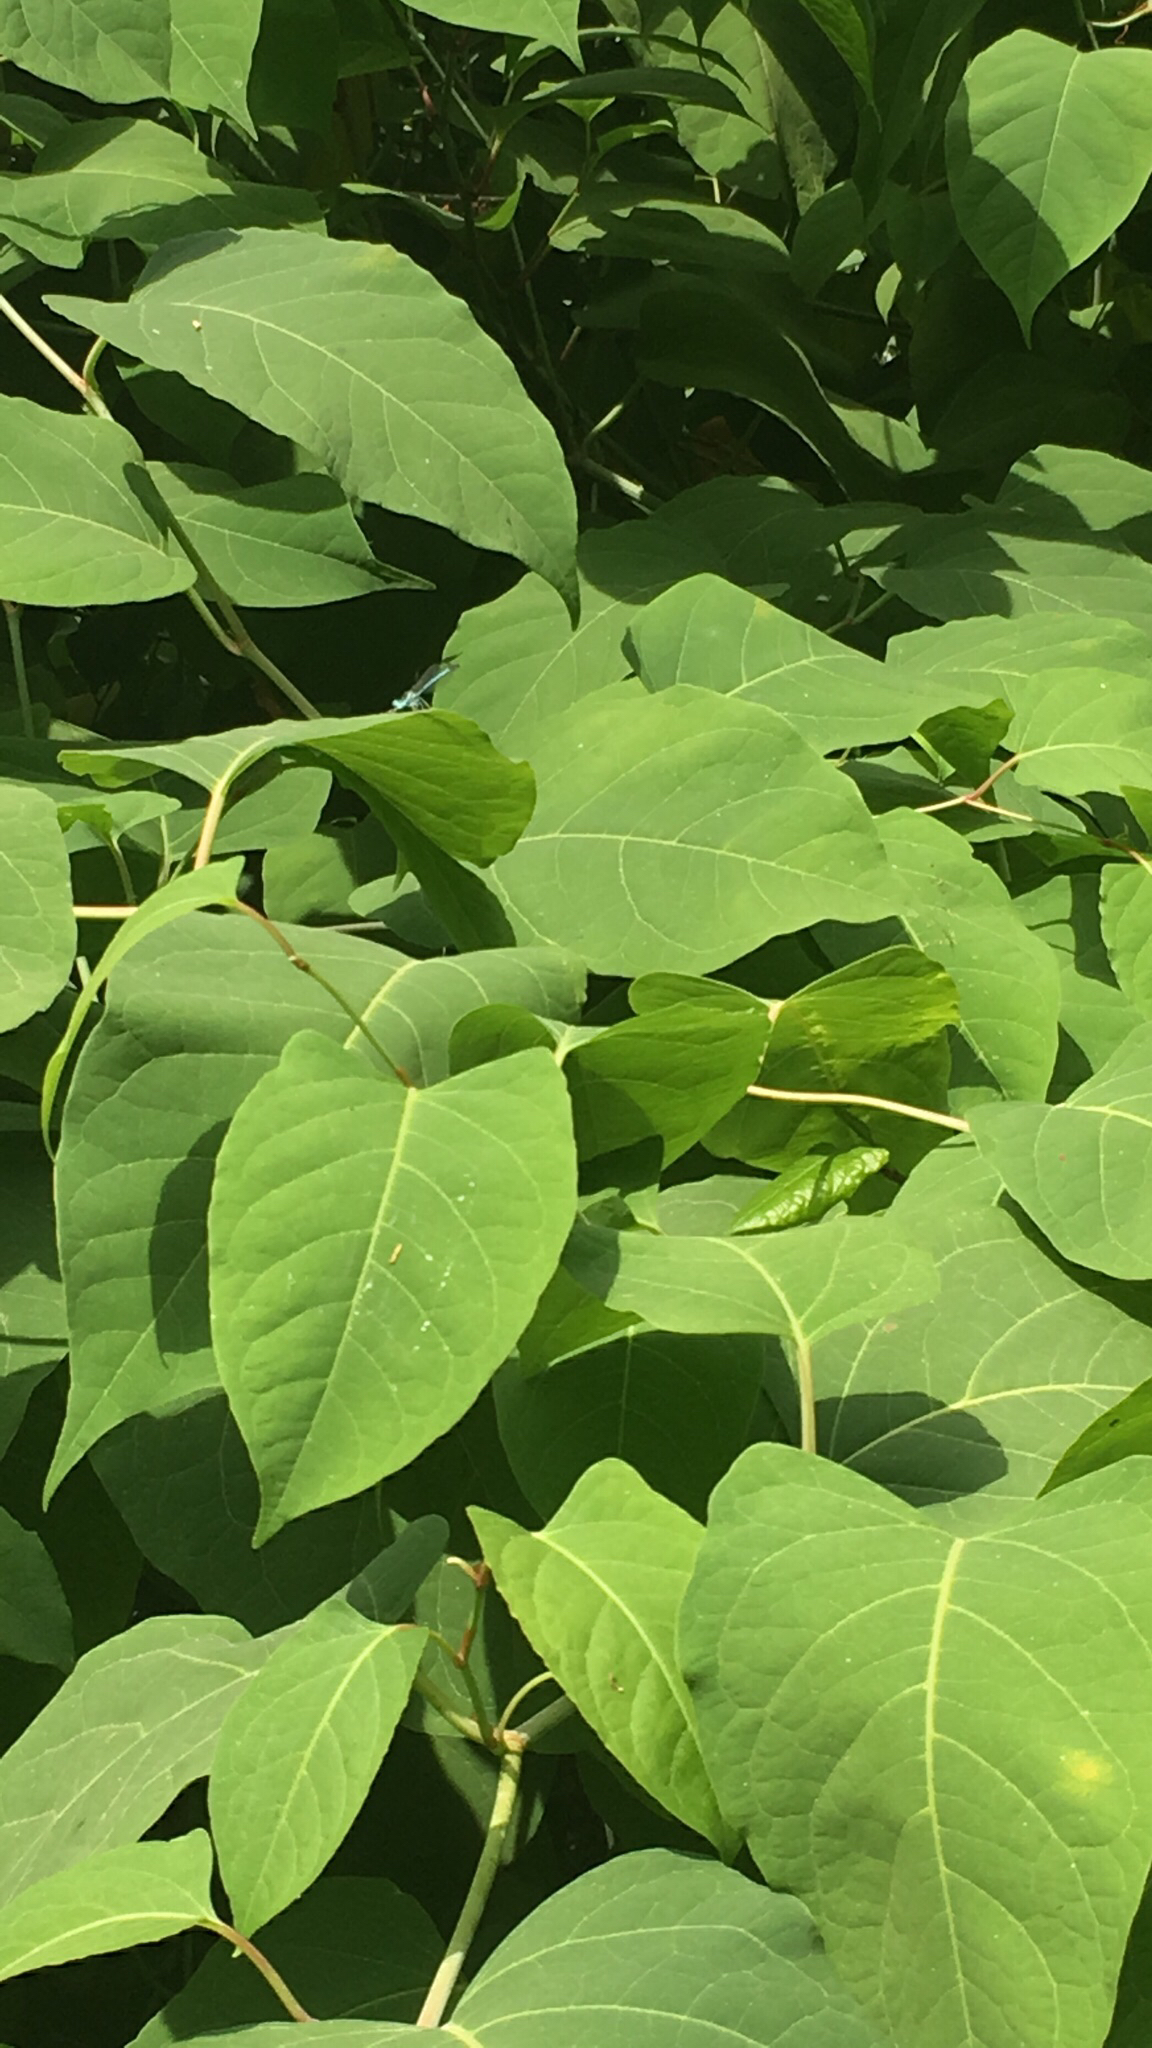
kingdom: Plantae
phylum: Tracheophyta
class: Magnoliopsida
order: Caryophyllales
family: Polygonaceae
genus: Reynoutria
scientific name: Reynoutria japonica
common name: Japanese knotweed
